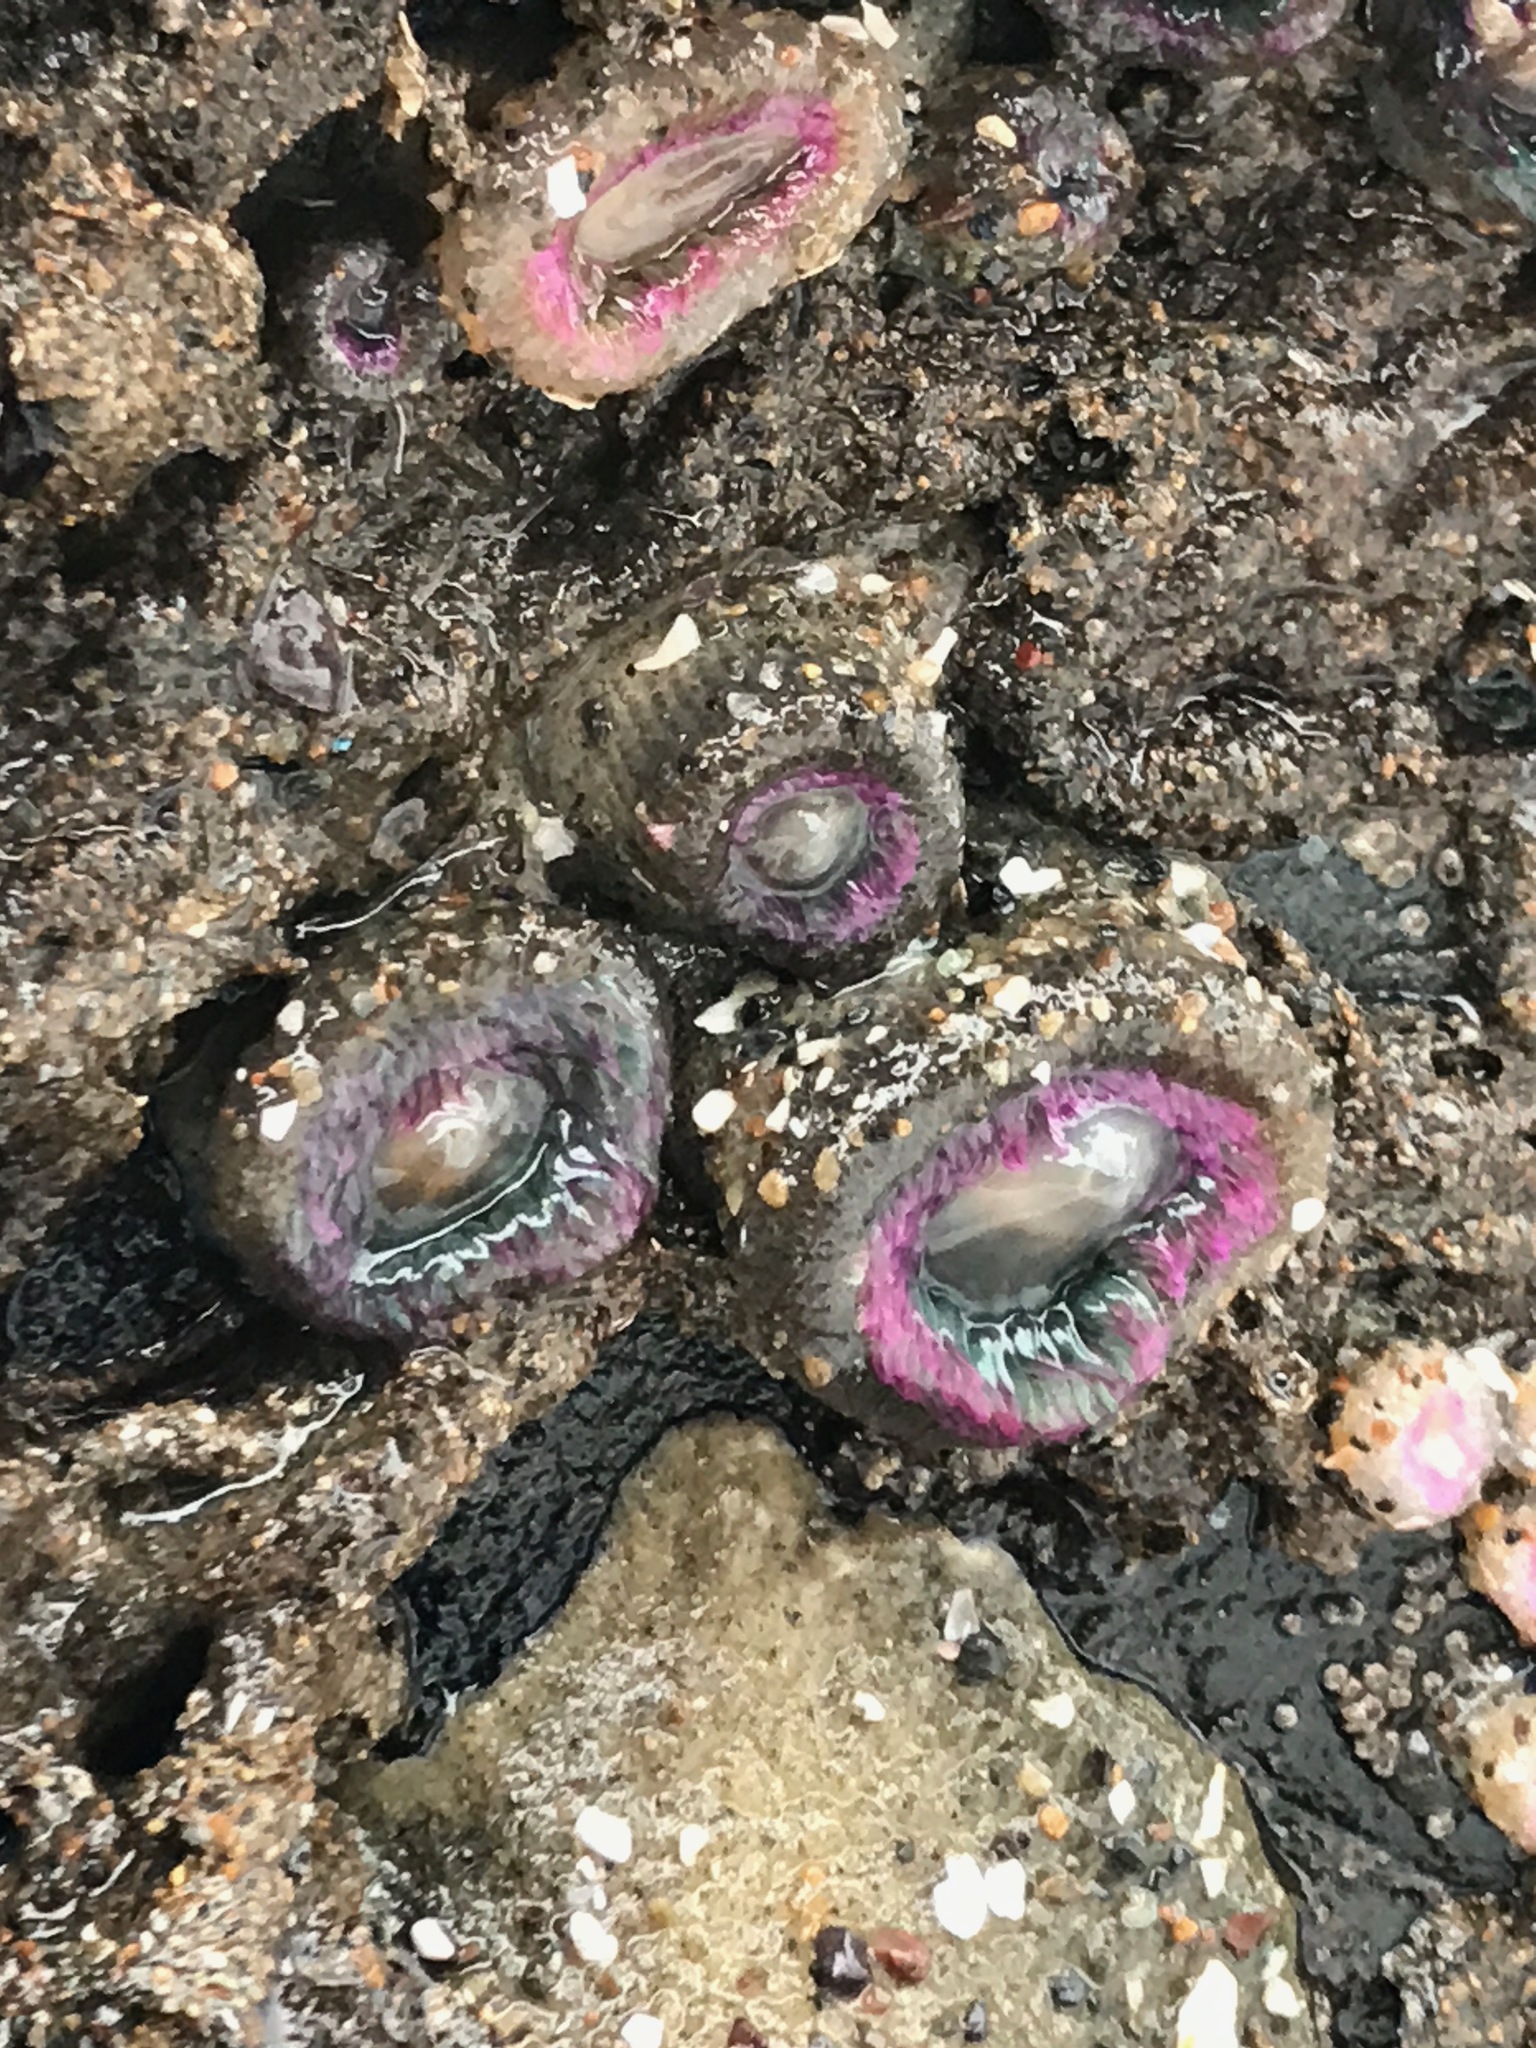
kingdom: Animalia
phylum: Cnidaria
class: Anthozoa
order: Actiniaria
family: Actiniidae
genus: Anthopleura
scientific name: Anthopleura elegantissima
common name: Clonal anemone
